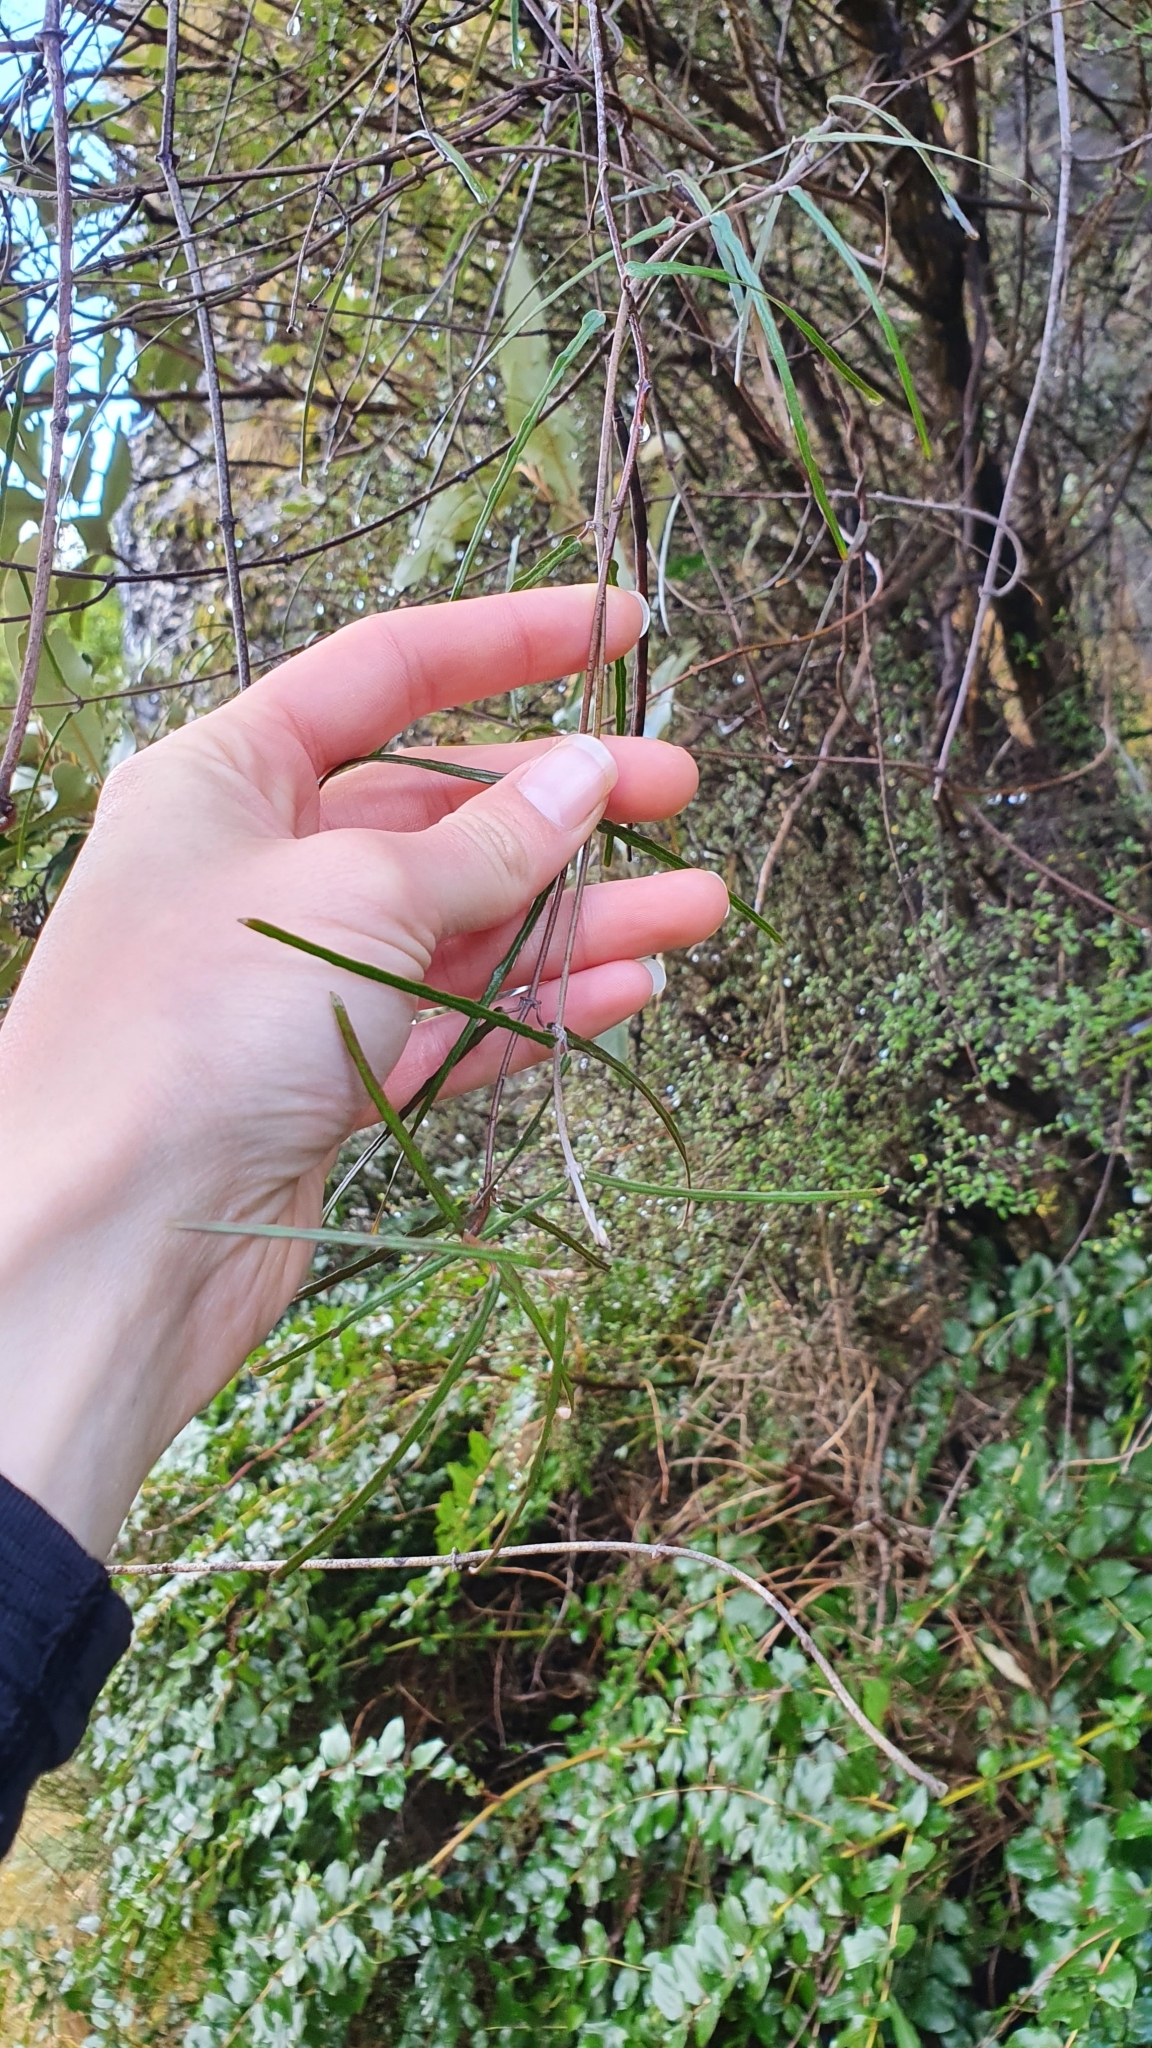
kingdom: Plantae
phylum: Tracheophyta
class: Magnoliopsida
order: Gentianales
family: Apocynaceae
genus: Parsonsia
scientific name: Parsonsia capsularis
